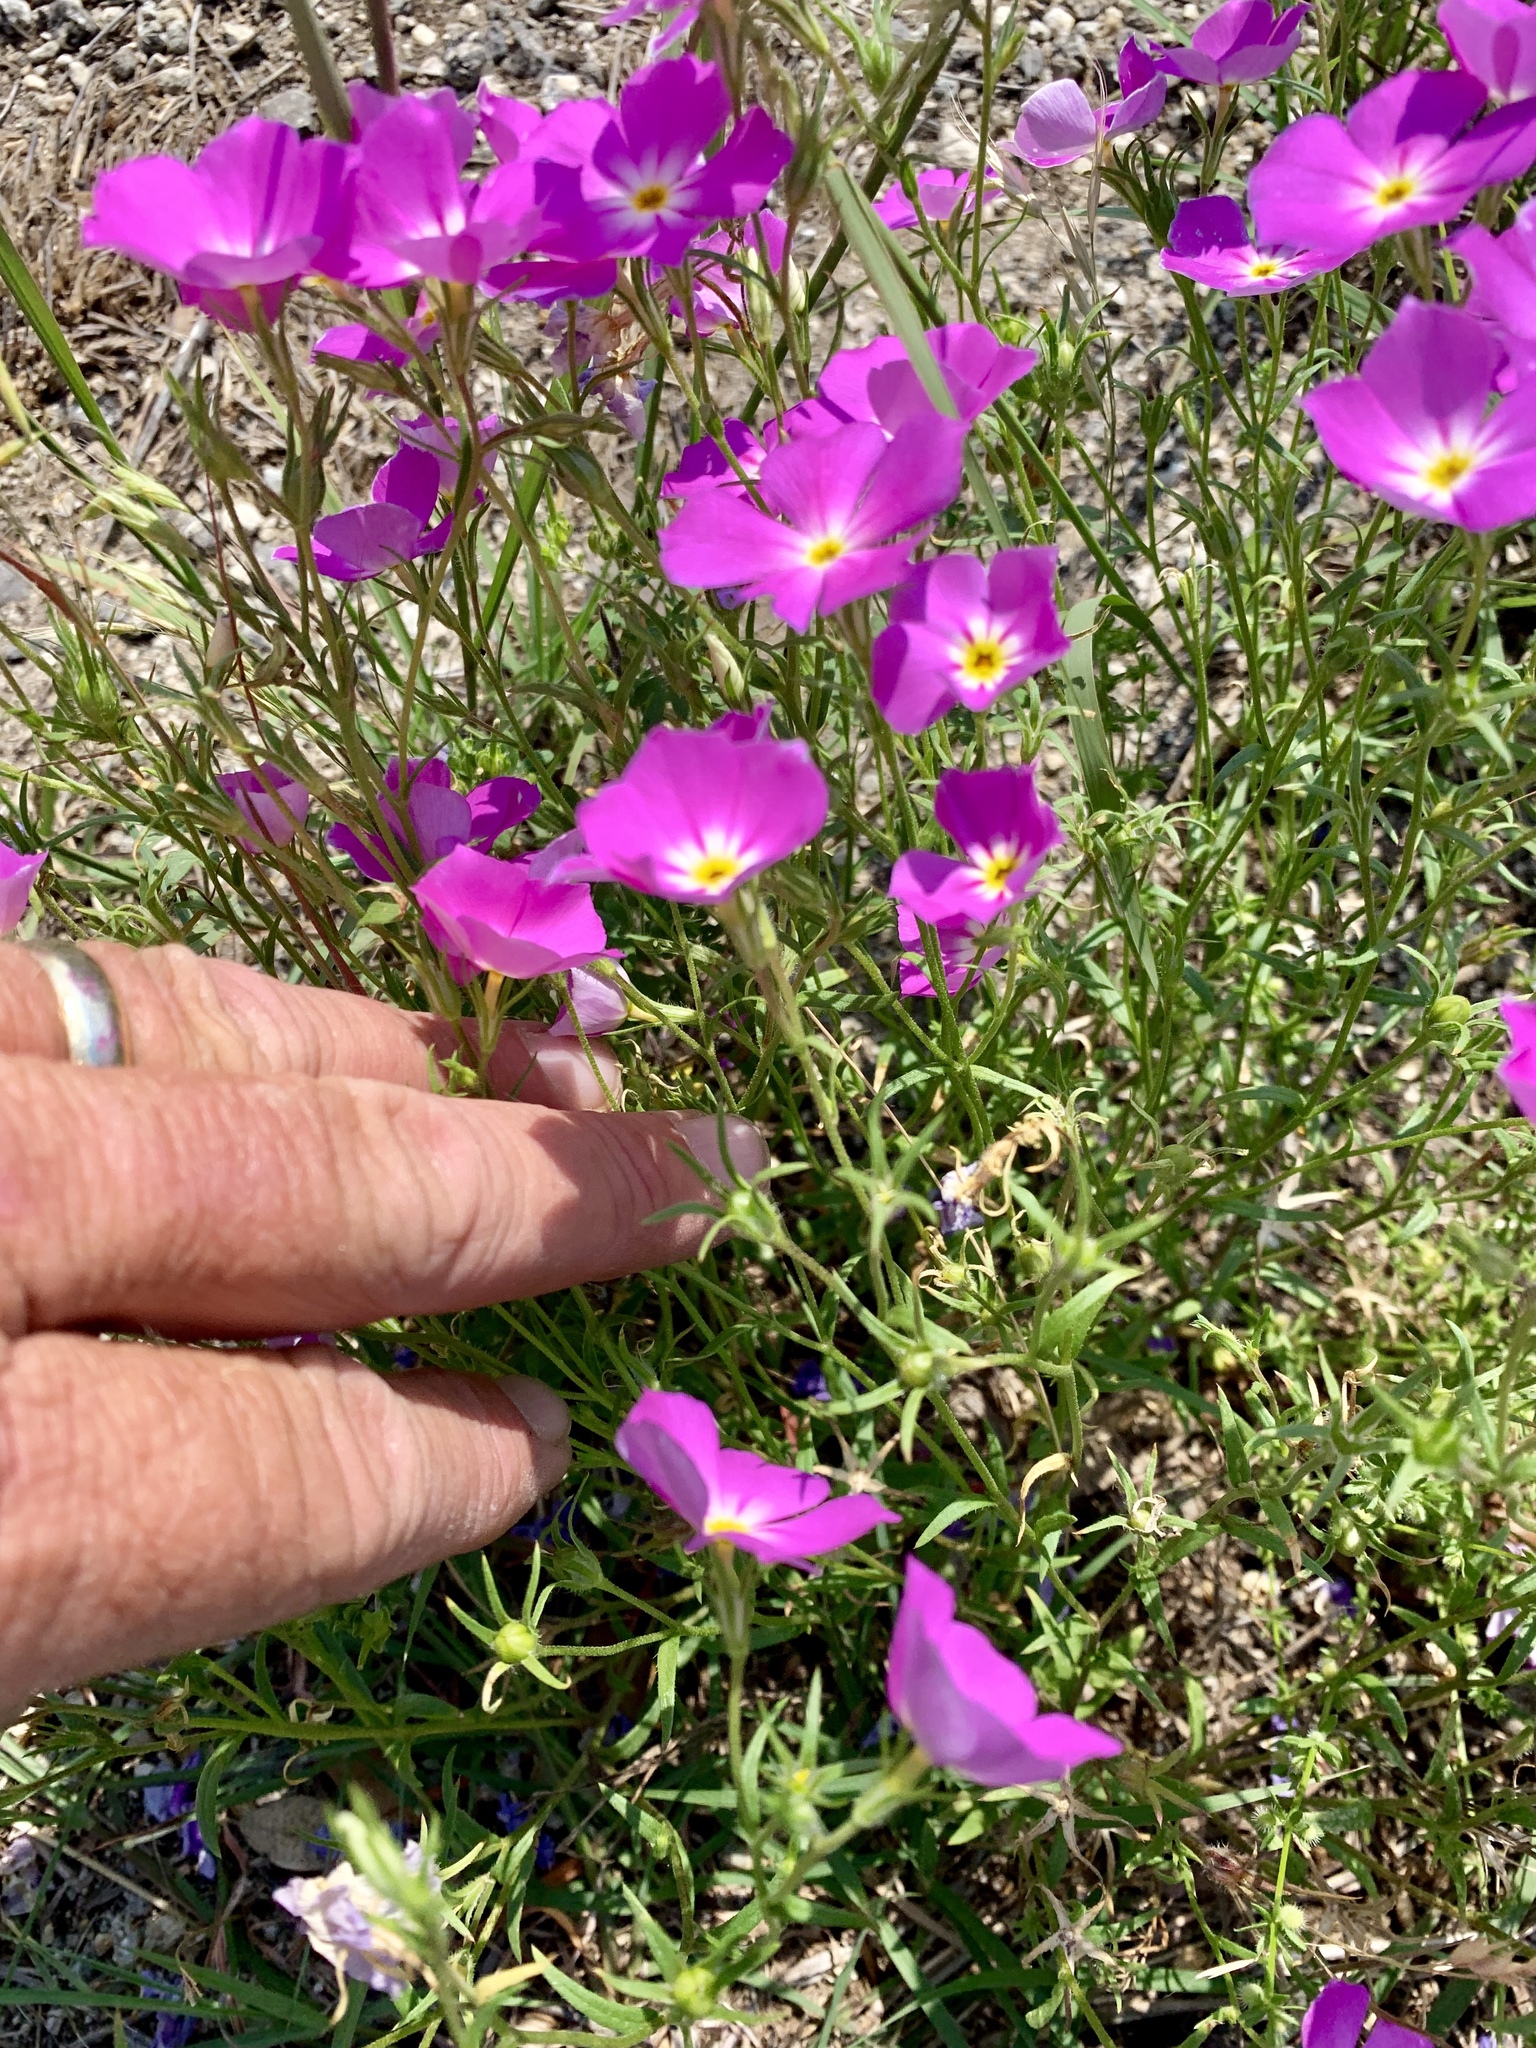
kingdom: Plantae
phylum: Tracheophyta
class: Magnoliopsida
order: Ericales
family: Polemoniaceae
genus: Phlox
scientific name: Phlox roemeriana
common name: Roemer's phlox
